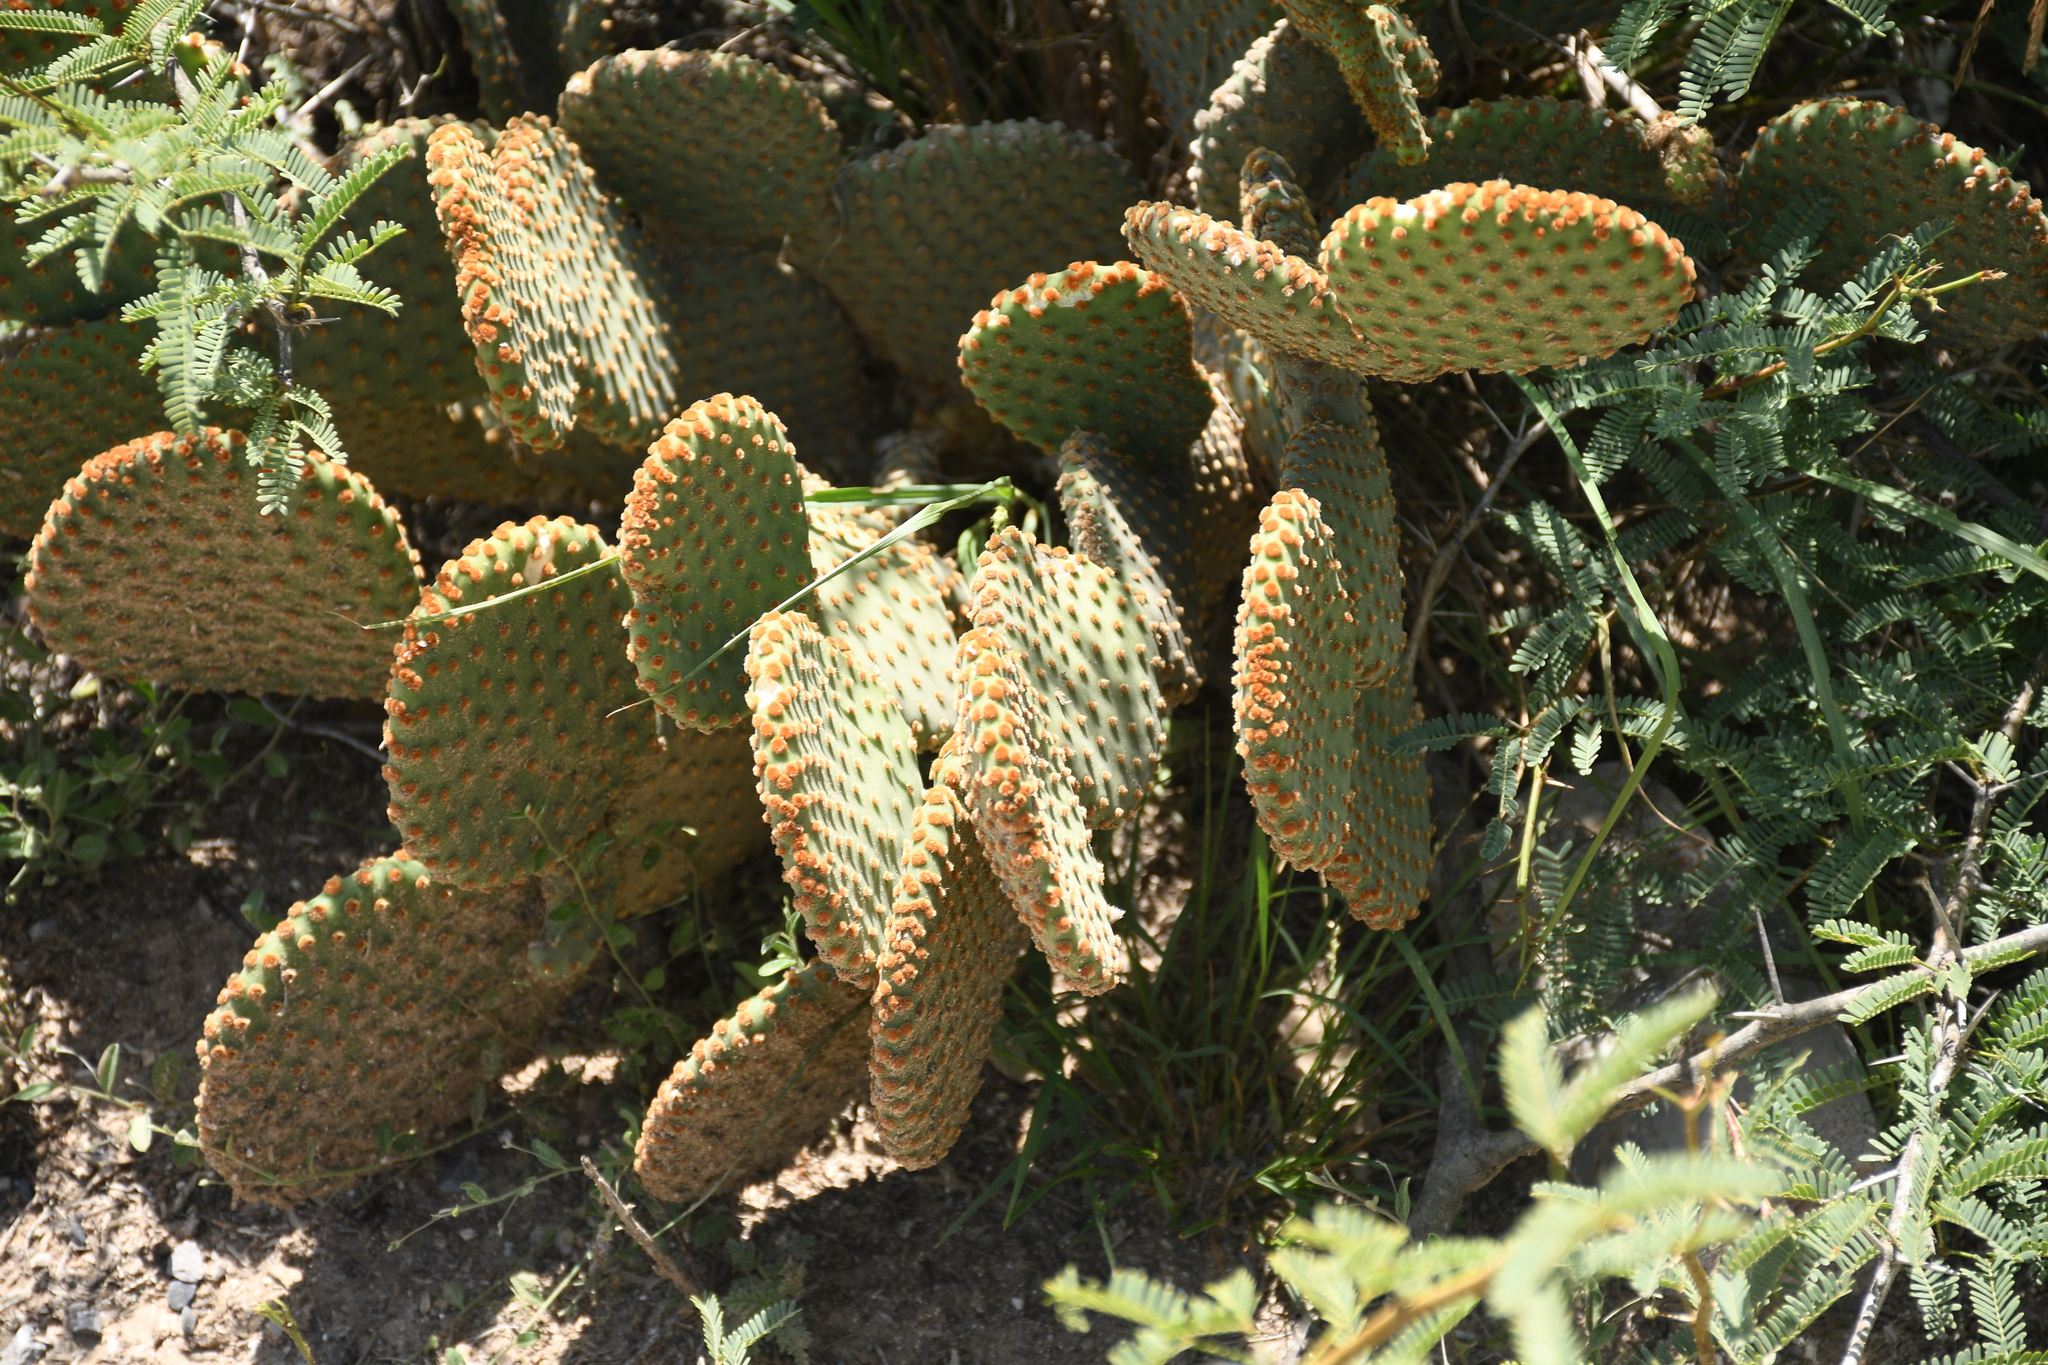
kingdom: Plantae
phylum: Tracheophyta
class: Magnoliopsida
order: Caryophyllales
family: Cactaceae
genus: Opuntia
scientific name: Opuntia microdasys
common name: Angel's-wings
